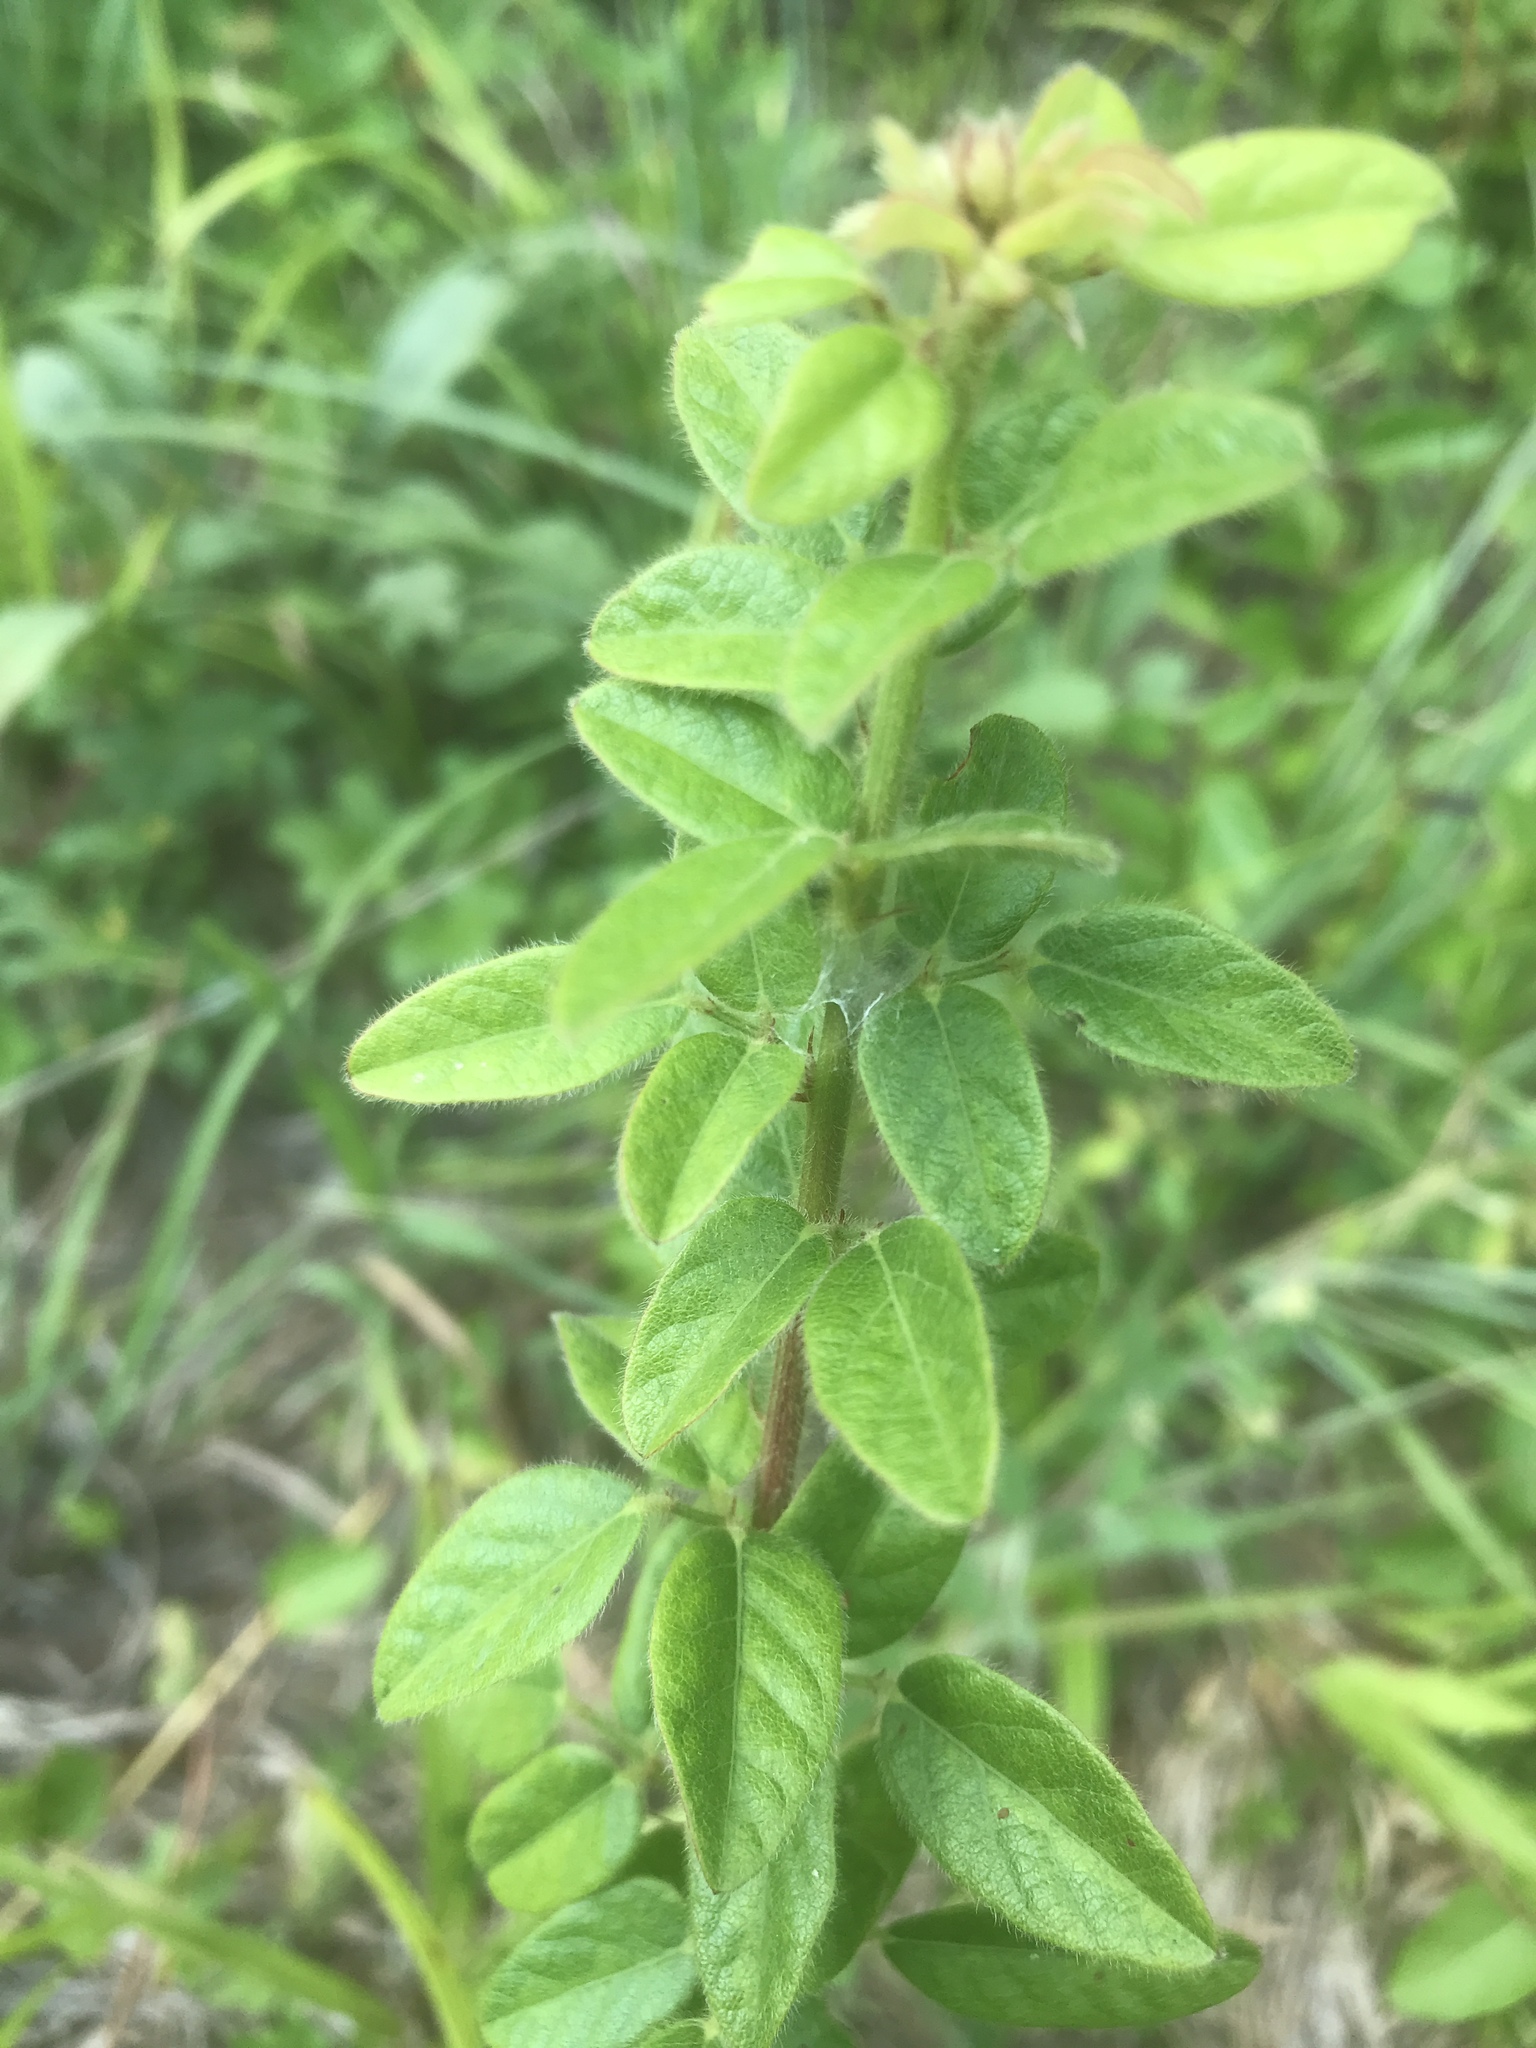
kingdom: Plantae
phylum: Tracheophyta
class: Magnoliopsida
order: Fabales
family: Fabaceae
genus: Desmodium
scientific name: Desmodium ciliare
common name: Hairy small-leaf ticktrefoil
